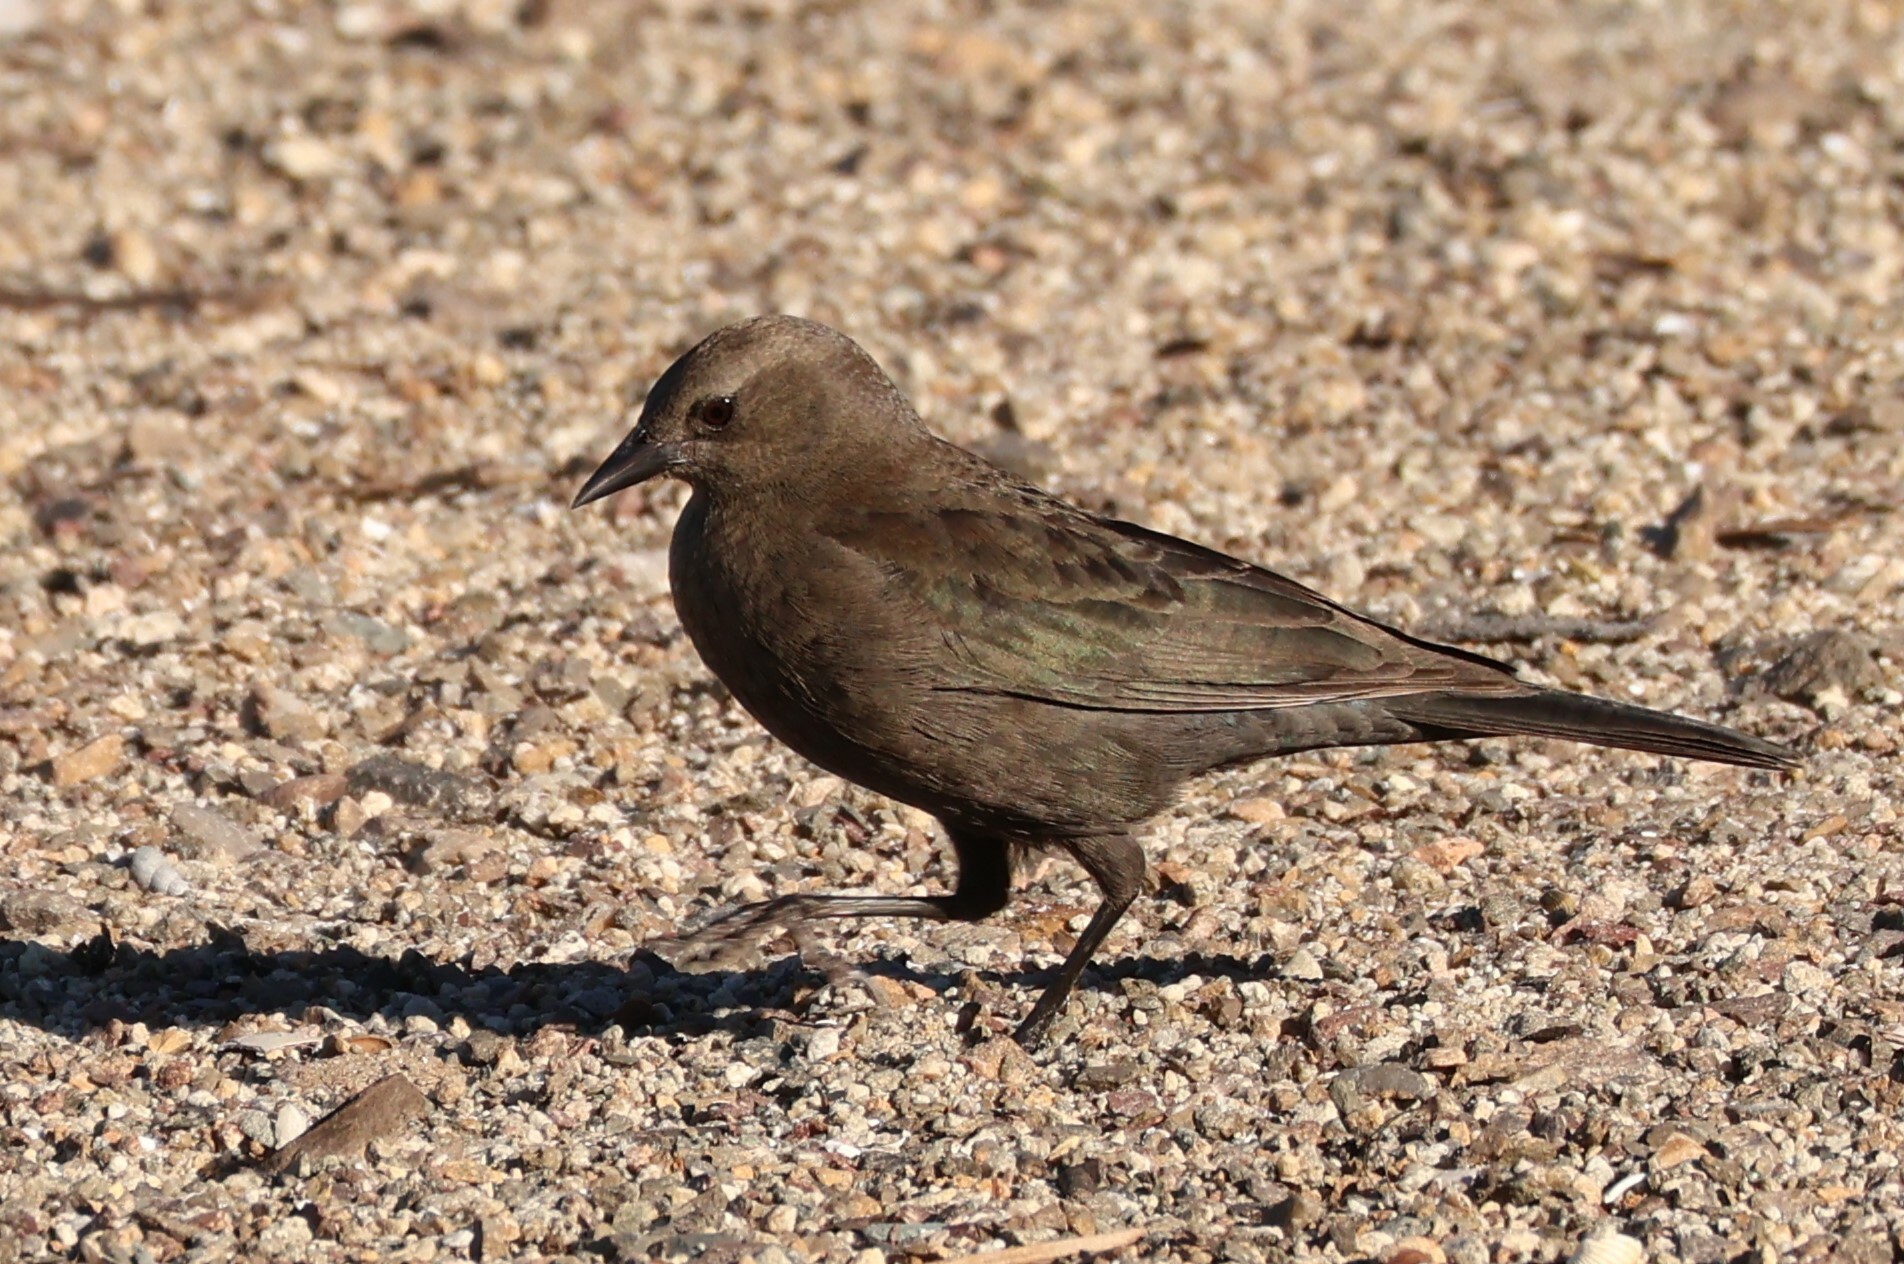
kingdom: Animalia
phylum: Chordata
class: Aves
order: Passeriformes
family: Icteridae
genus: Euphagus
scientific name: Euphagus cyanocephalus
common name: Brewer's blackbird
